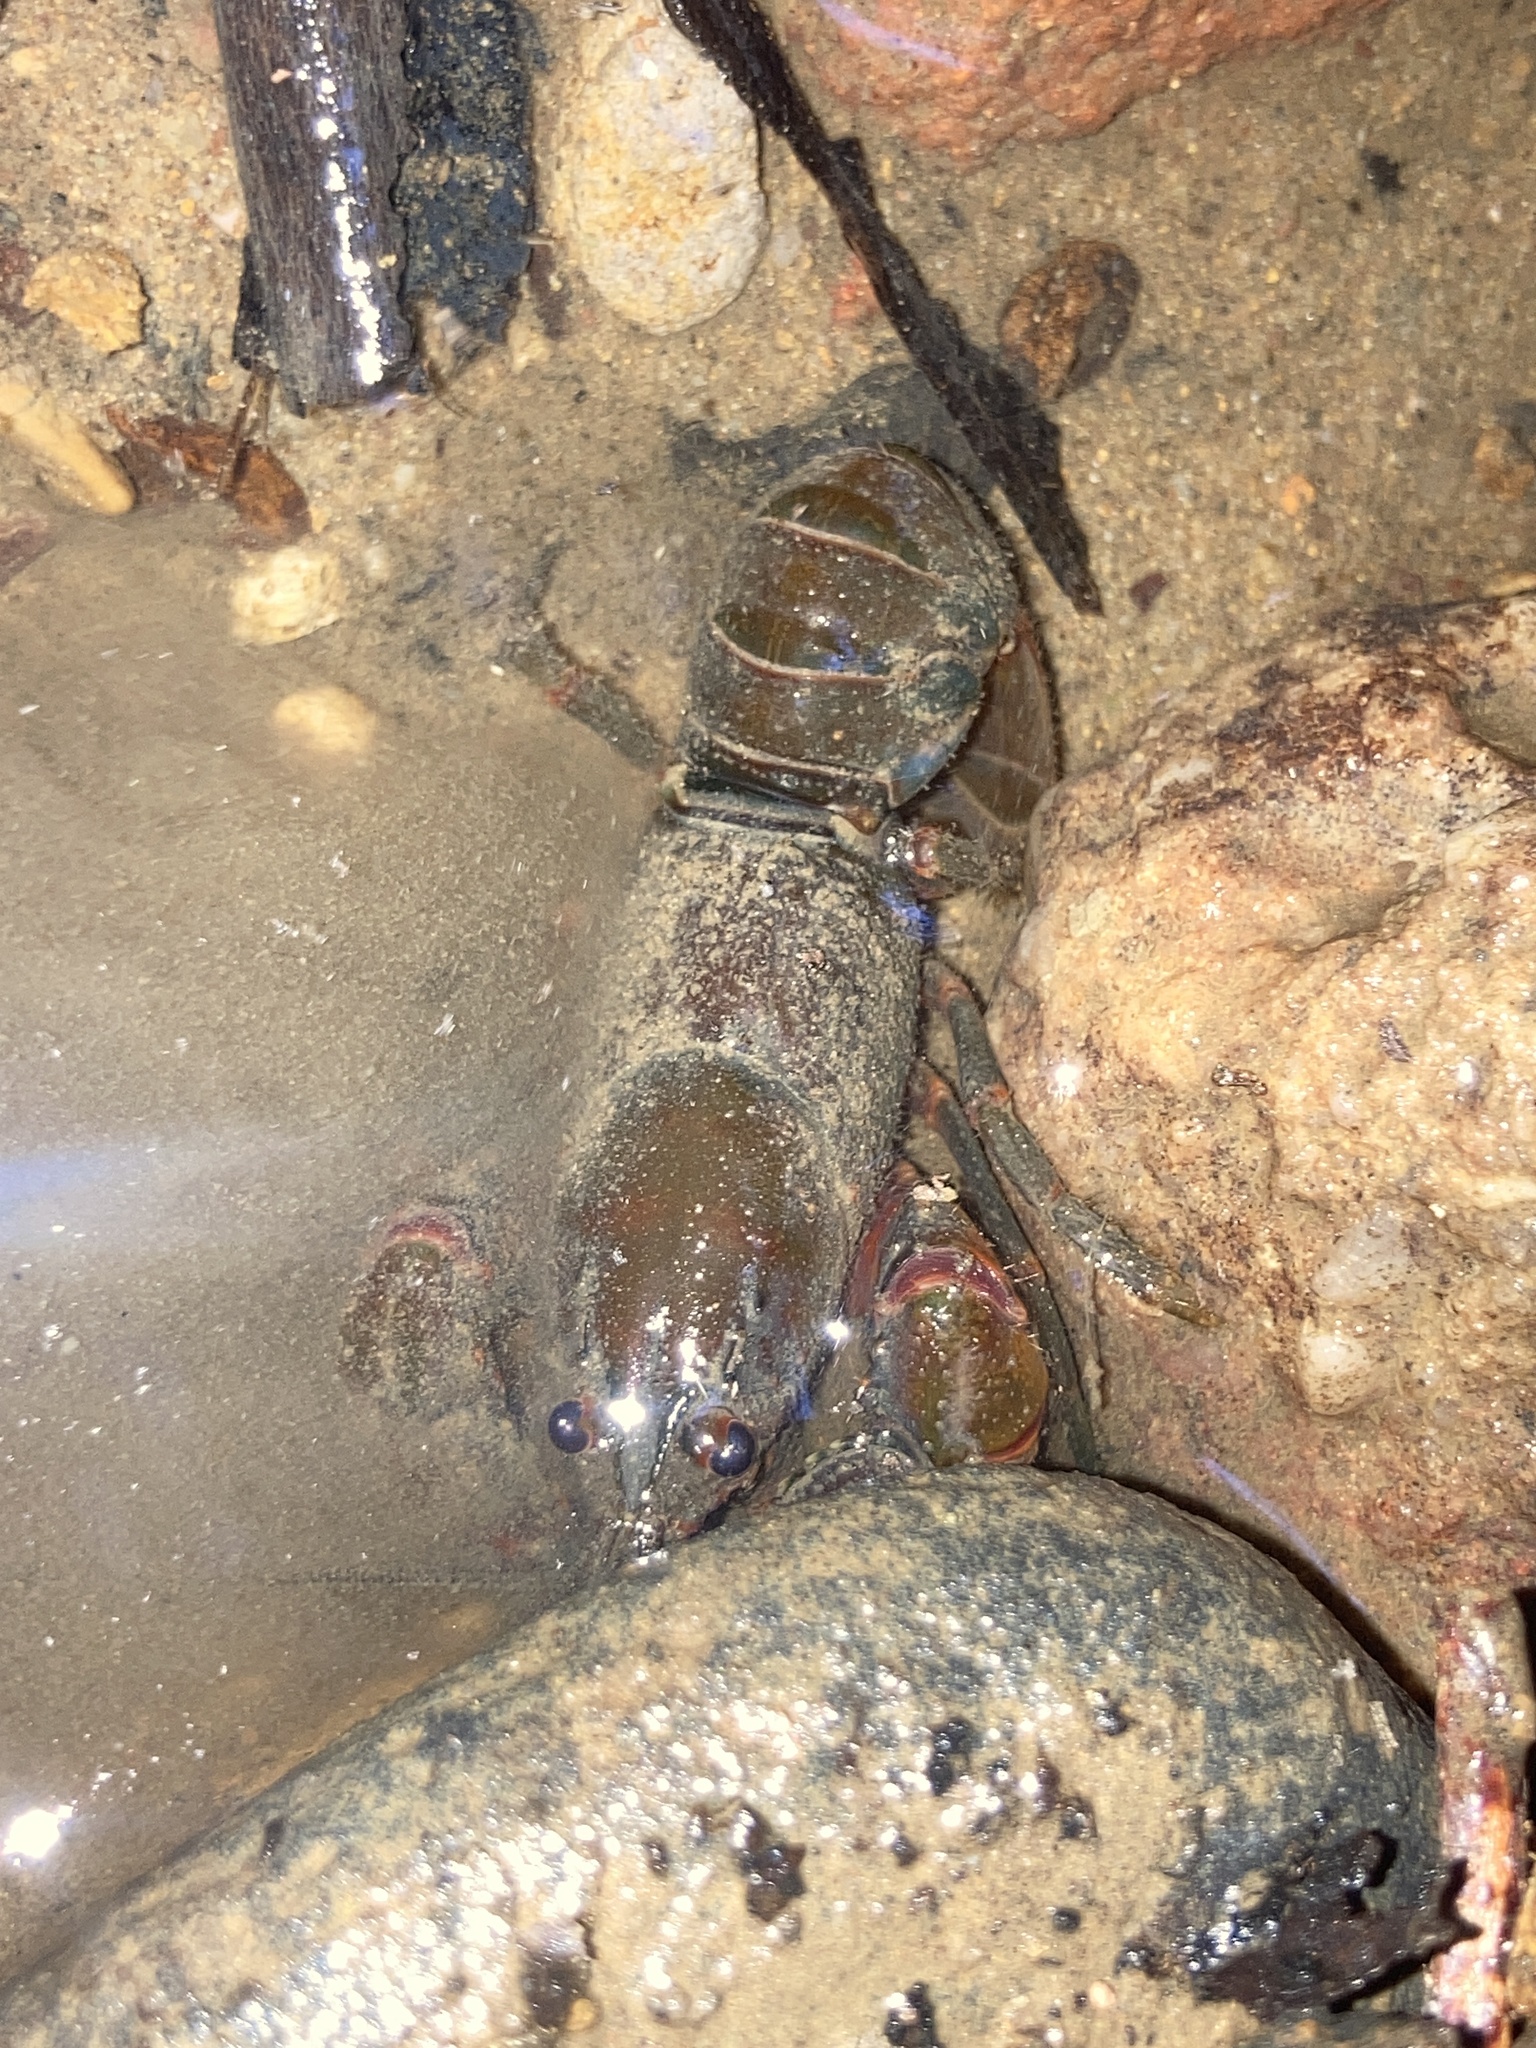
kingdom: Animalia
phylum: Arthropoda
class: Malacostraca
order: Decapoda
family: Parastacidae
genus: Euastacus
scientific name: Euastacus spinifer
